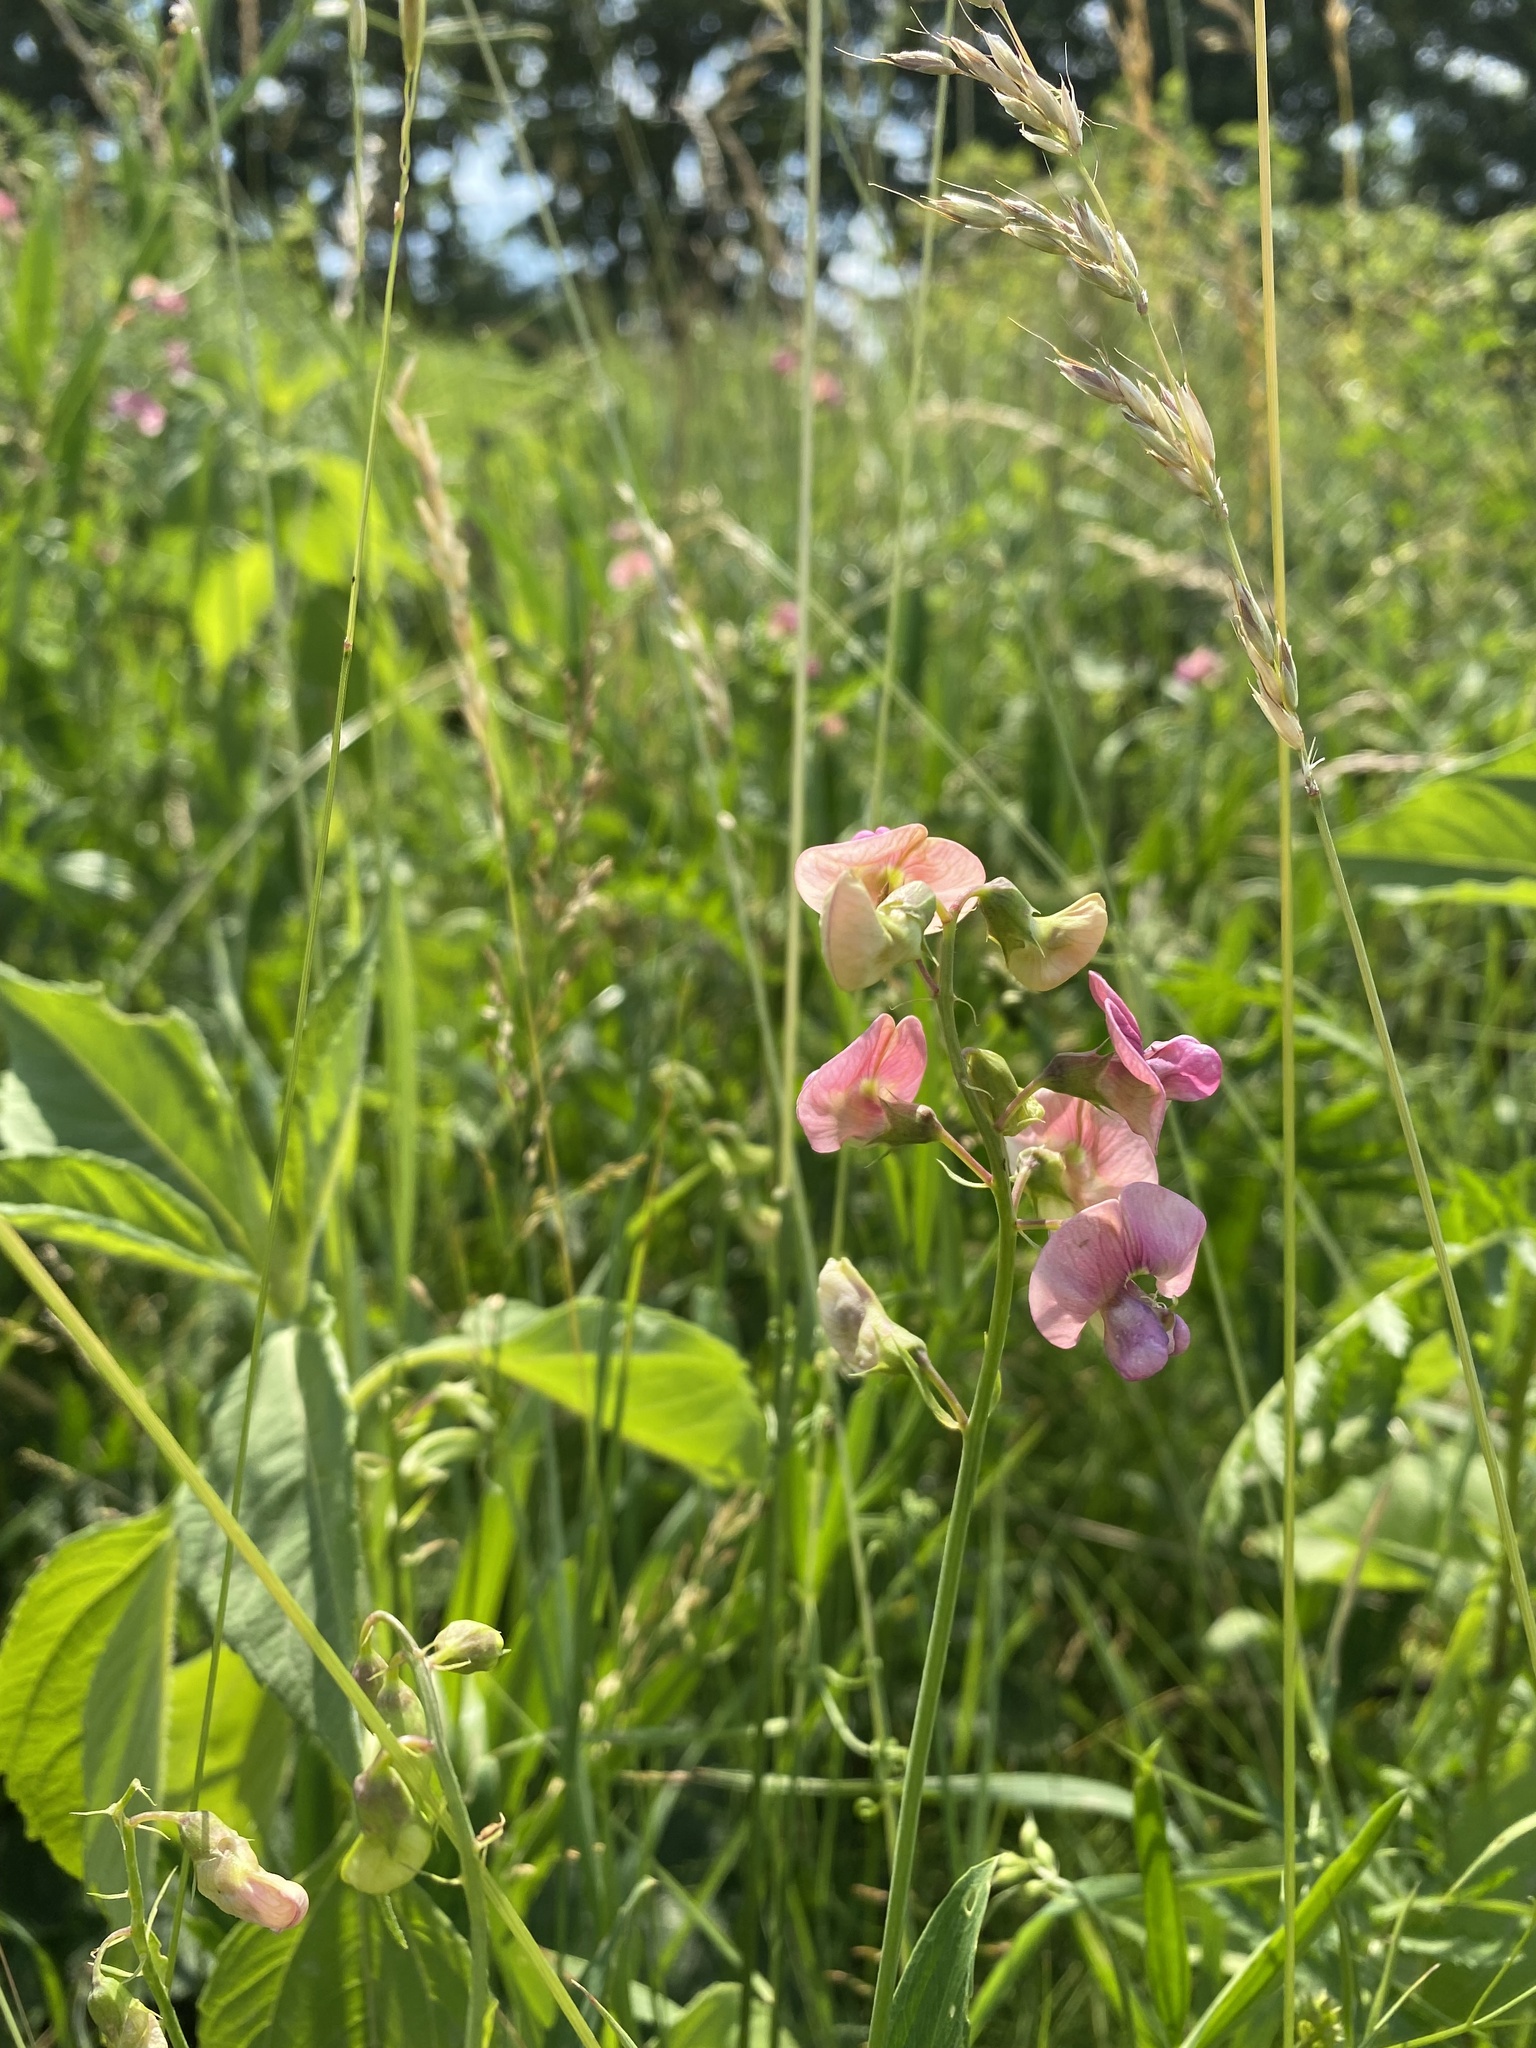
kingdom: Plantae
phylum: Tracheophyta
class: Magnoliopsida
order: Fabales
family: Fabaceae
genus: Lathyrus
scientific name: Lathyrus sylvestris
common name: Flat pea
